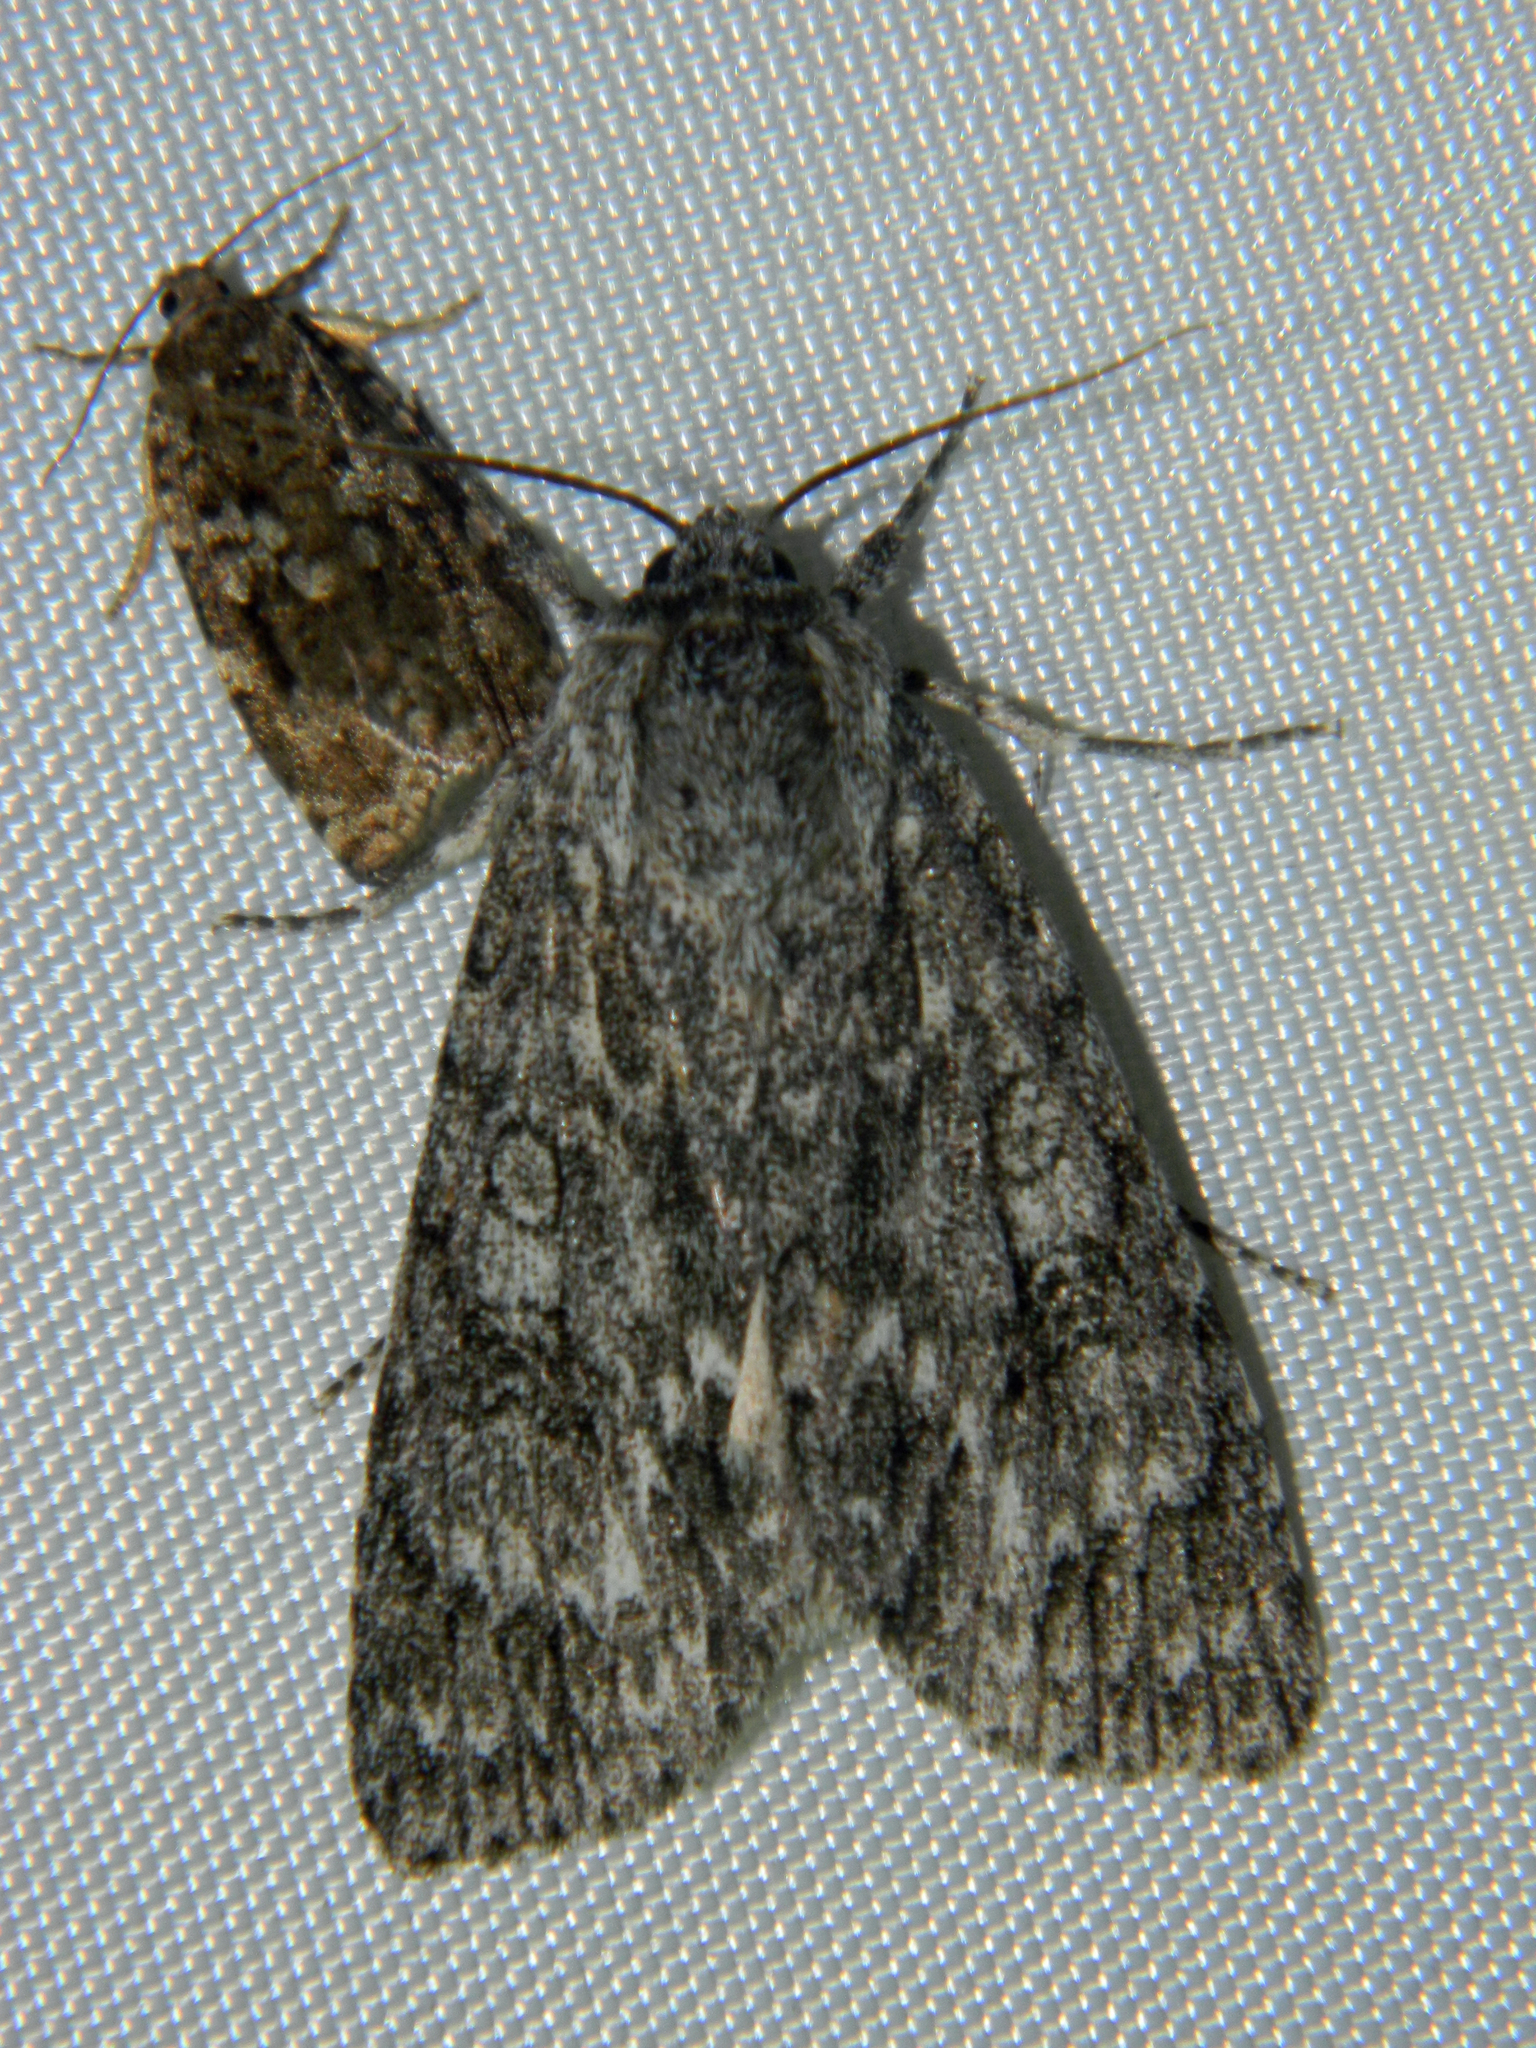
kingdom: Animalia
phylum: Arthropoda
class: Insecta
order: Lepidoptera
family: Noctuidae
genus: Acronicta
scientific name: Acronicta impleta
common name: Powdered dagger
